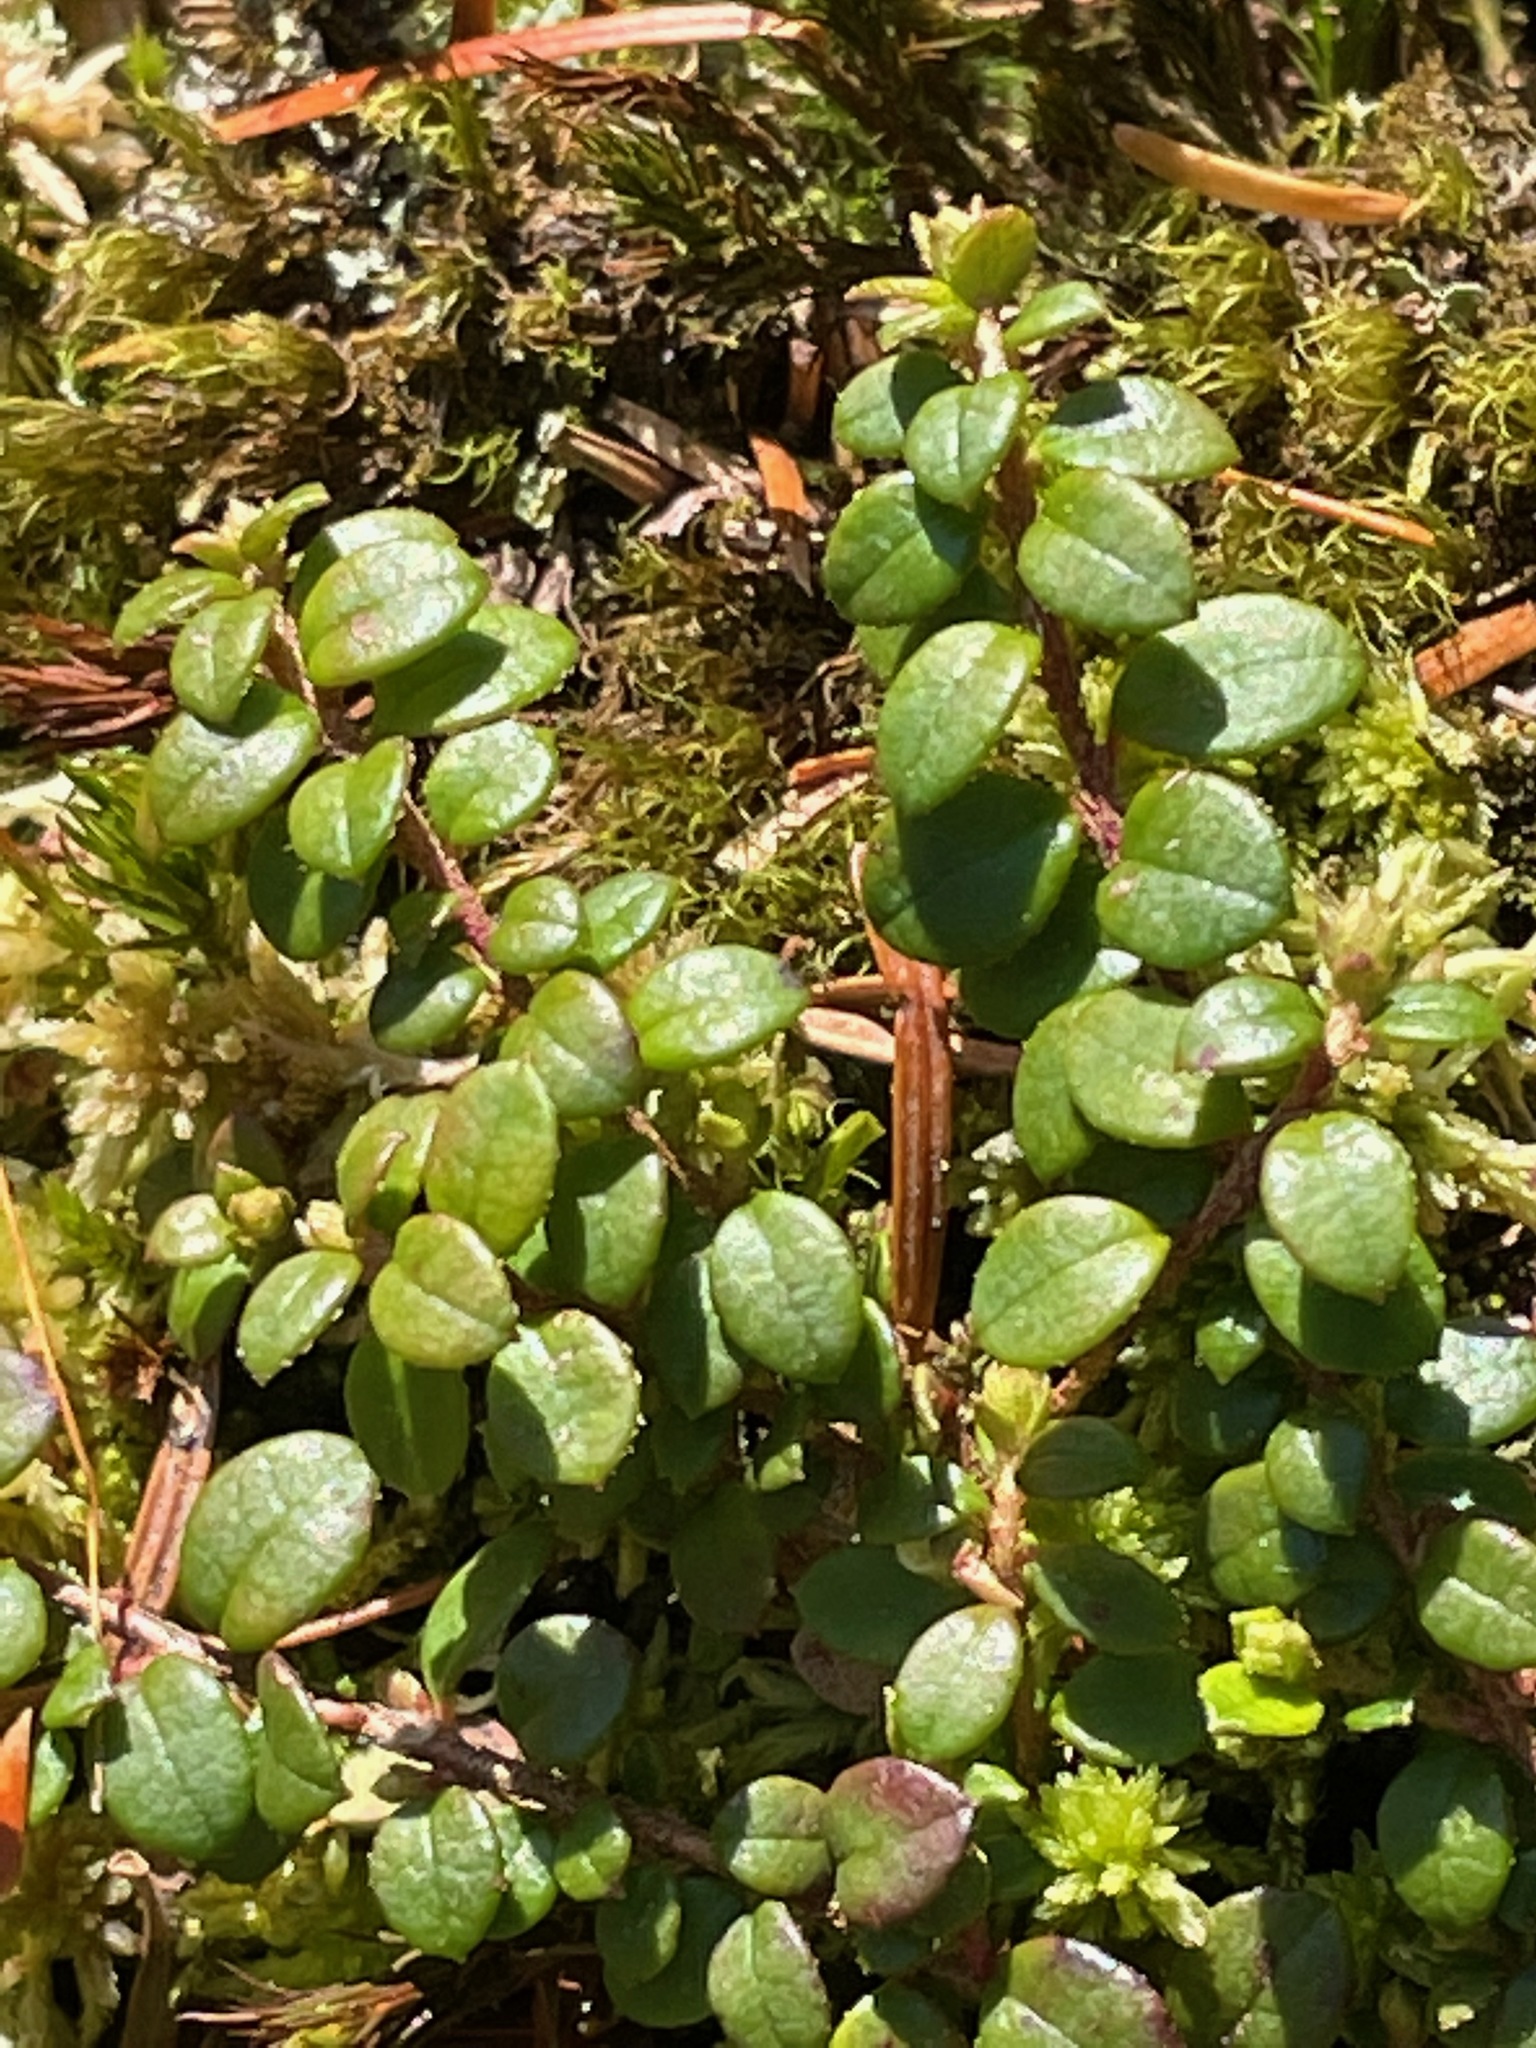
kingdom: Plantae
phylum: Tracheophyta
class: Magnoliopsida
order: Ericales
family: Ericaceae
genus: Gaultheria
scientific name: Gaultheria hispidula
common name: Cancer wintergreen
